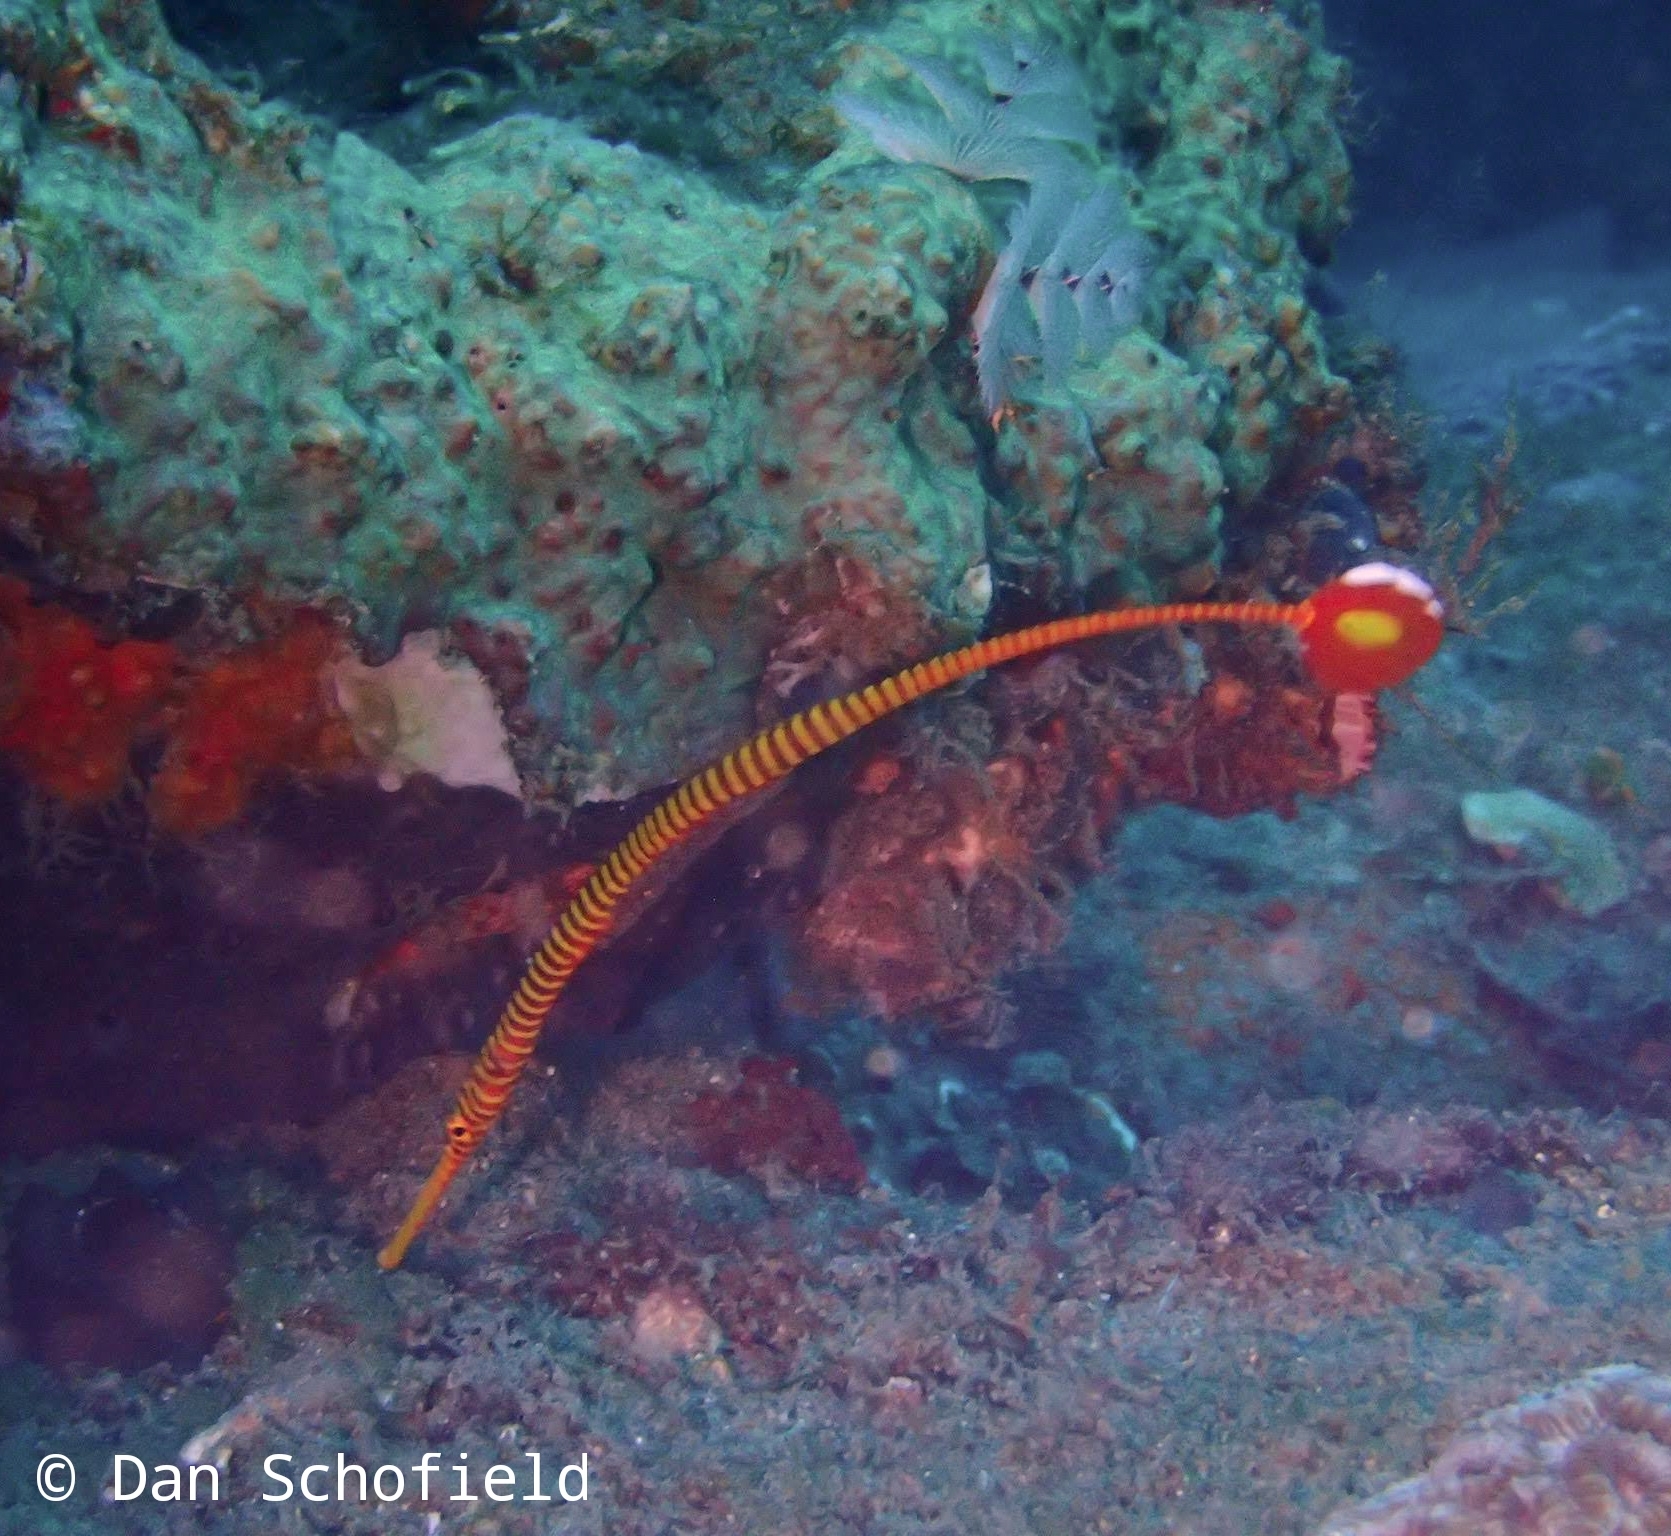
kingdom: Animalia
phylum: Chordata
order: Syngnathiformes
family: Syngnathidae
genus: Dunckerocampus
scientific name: Dunckerocampus pessuliferus
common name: Yellowbanded pipefish
